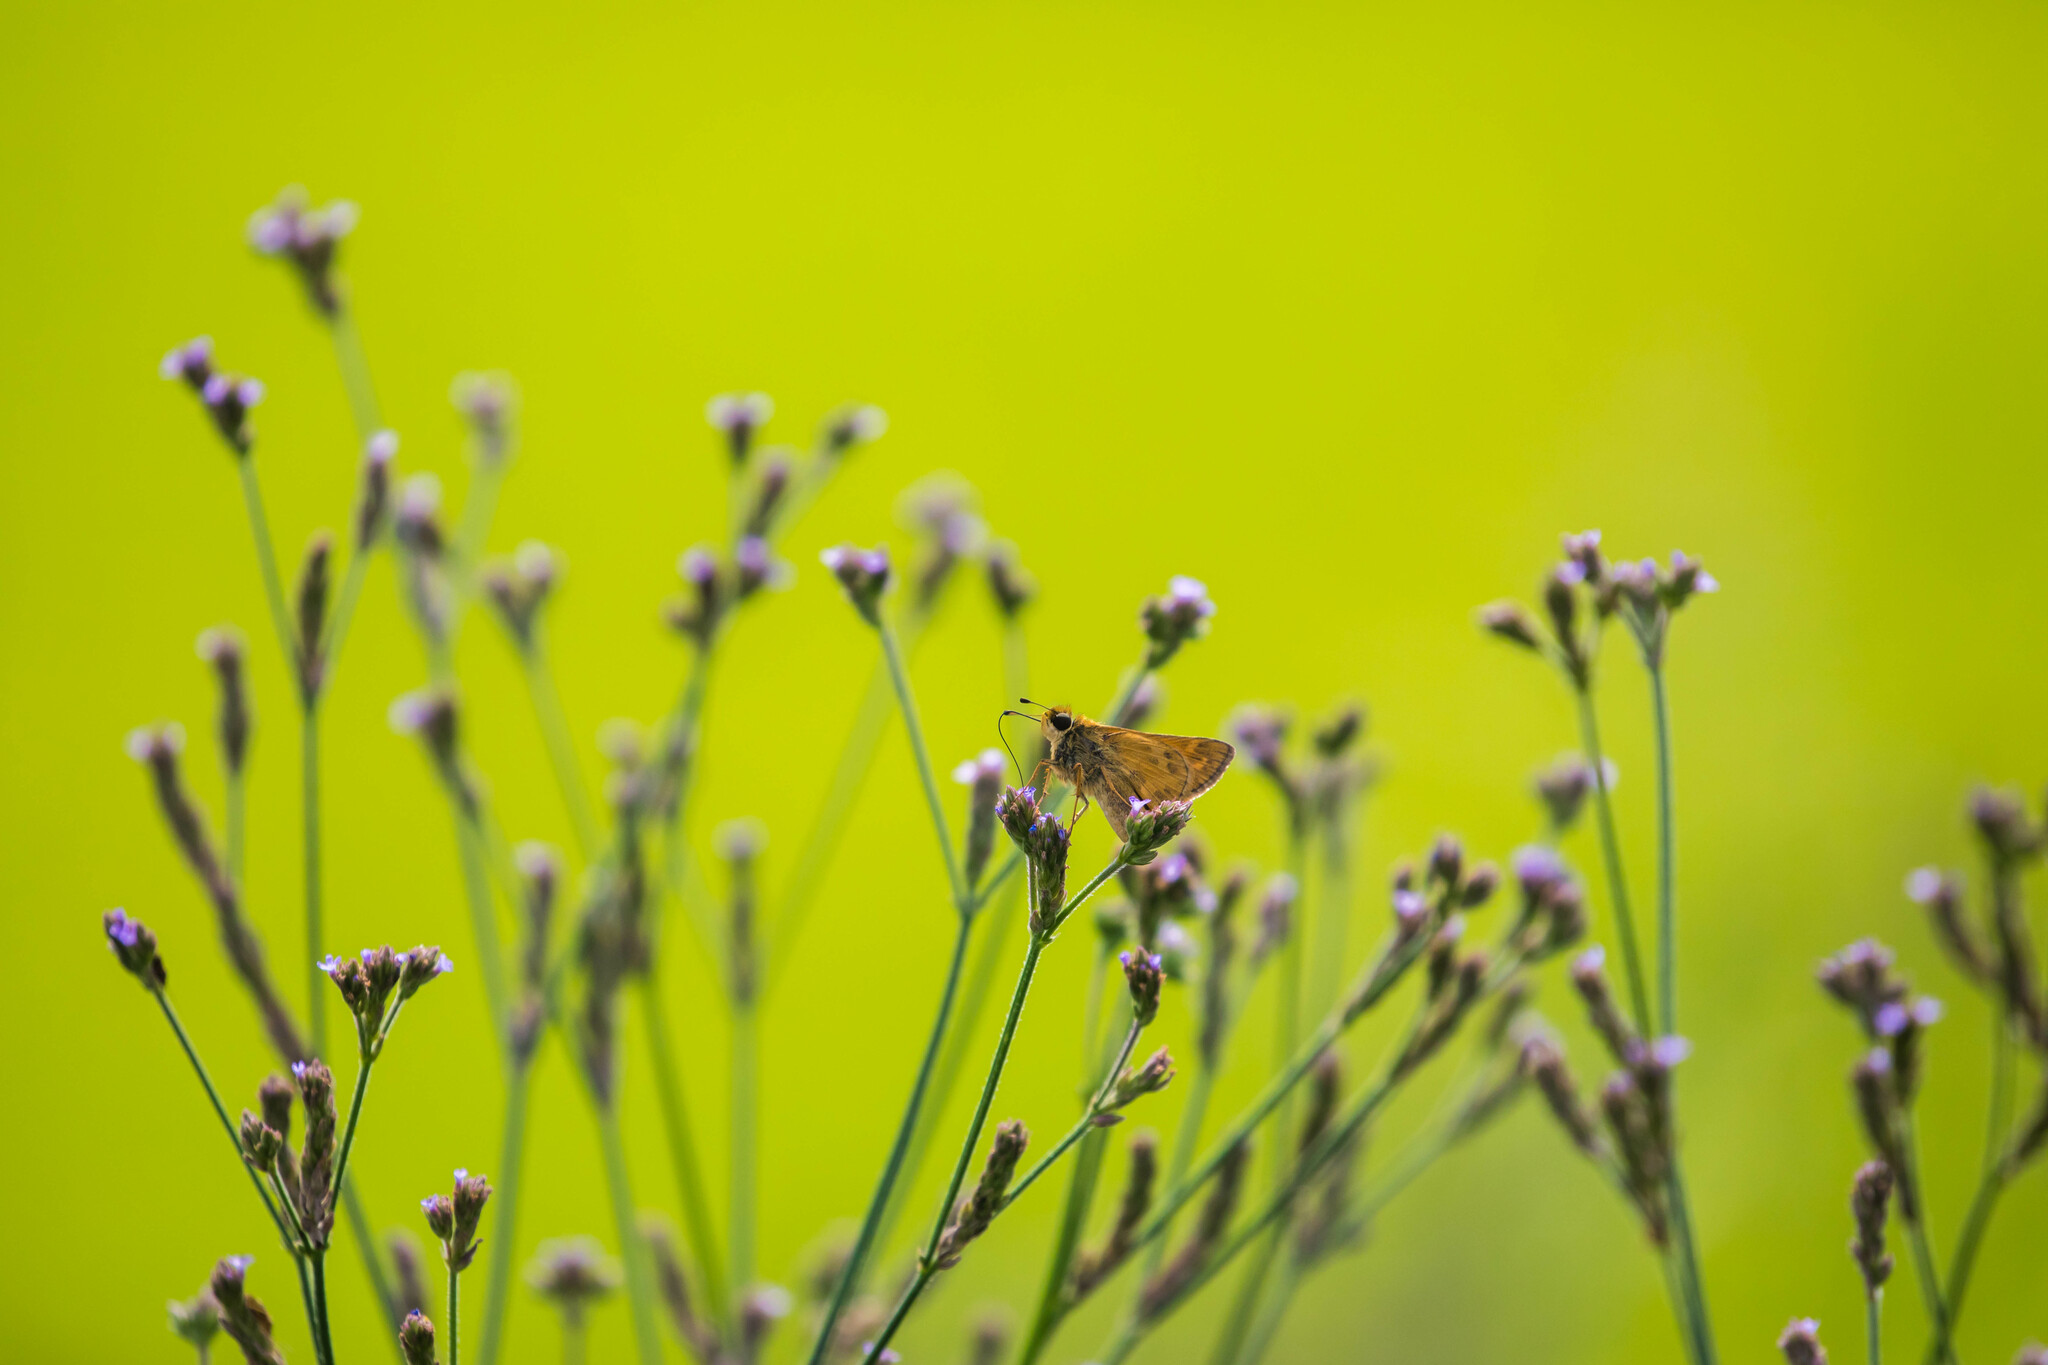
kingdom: Animalia
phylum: Arthropoda
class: Insecta
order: Lepidoptera
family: Hesperiidae
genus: Atalopedes
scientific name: Atalopedes
